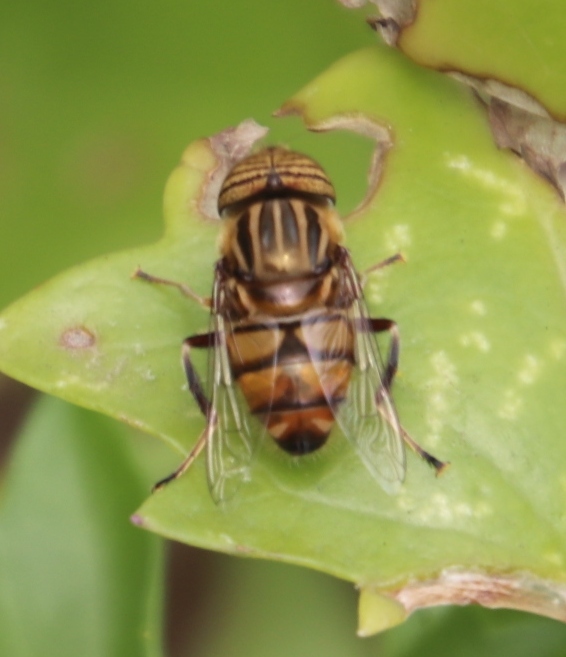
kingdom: Animalia
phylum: Arthropoda
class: Insecta
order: Diptera
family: Syrphidae
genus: Eristalinus
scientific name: Eristalinus barclayi
